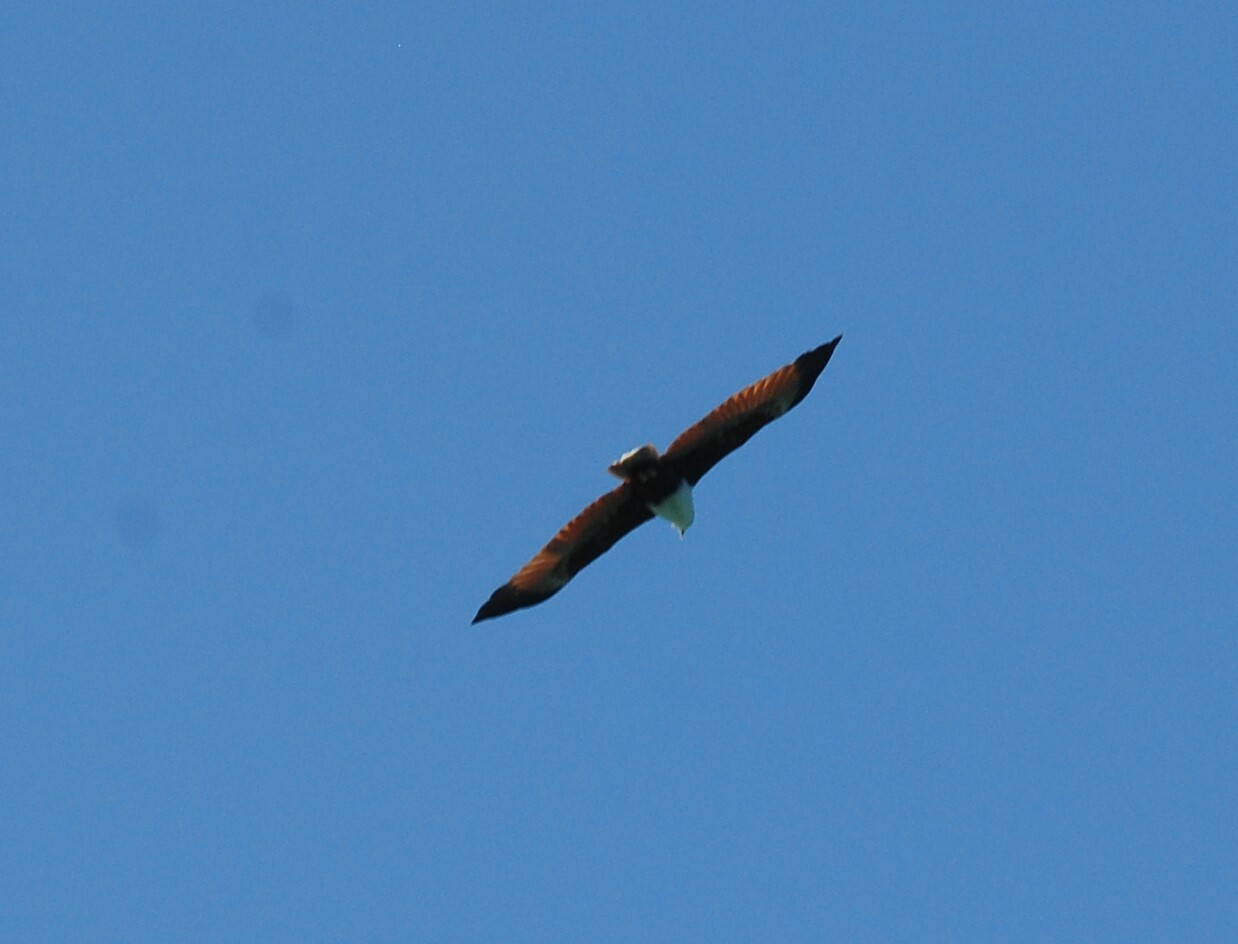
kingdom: Animalia
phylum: Chordata
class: Aves
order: Accipitriformes
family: Accipitridae
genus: Haliastur
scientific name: Haliastur indus
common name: Brahminy kite
